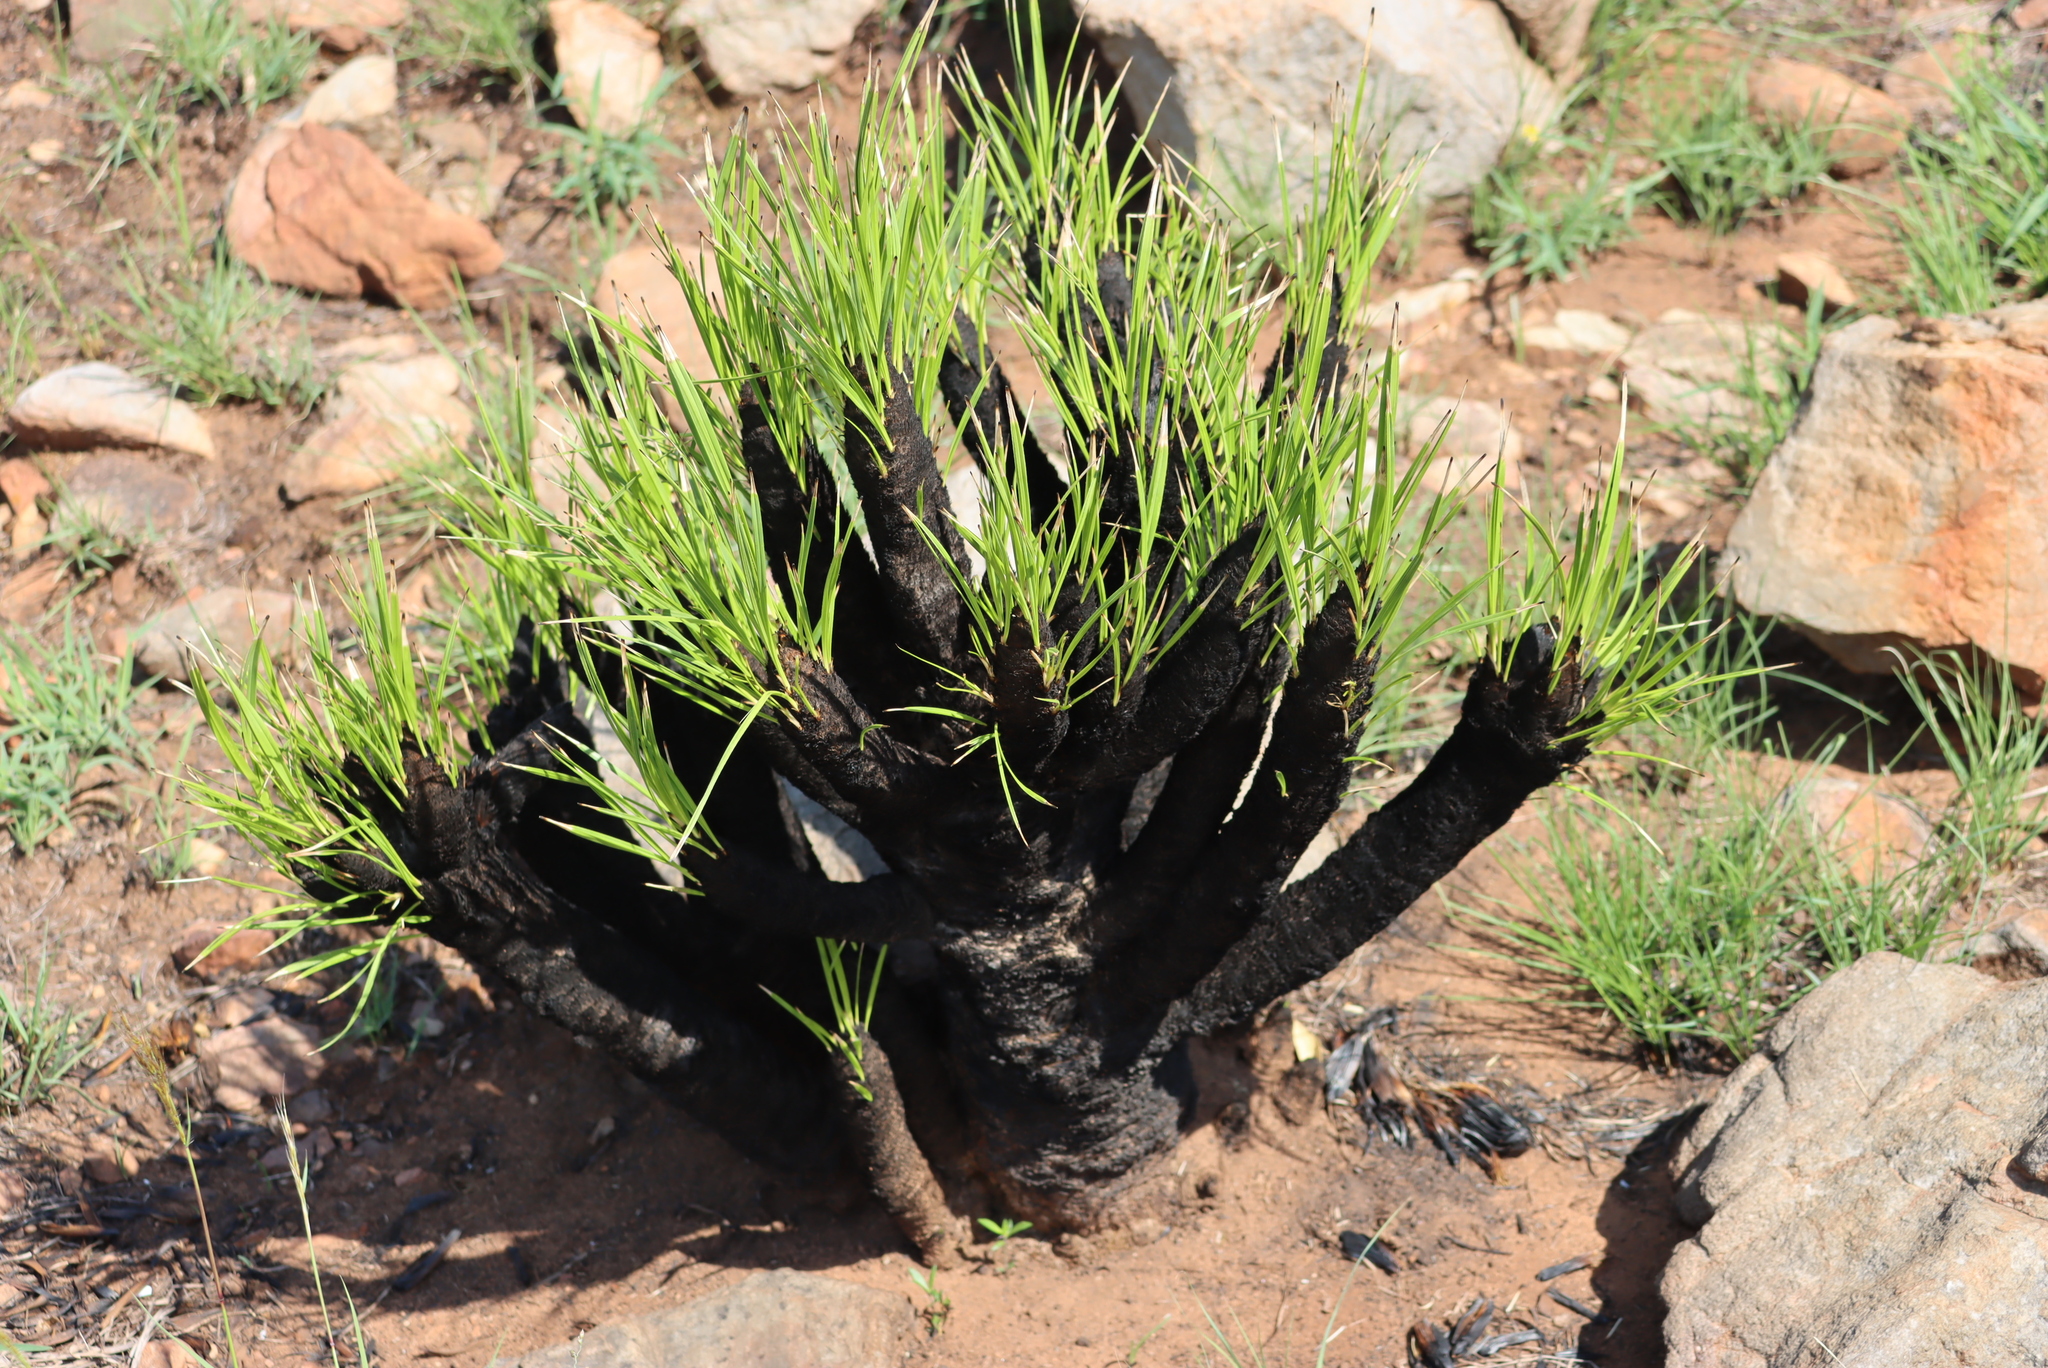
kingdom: Plantae
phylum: Tracheophyta
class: Liliopsida
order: Pandanales
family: Velloziaceae
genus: Xerophyta
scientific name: Xerophyta retinervis
